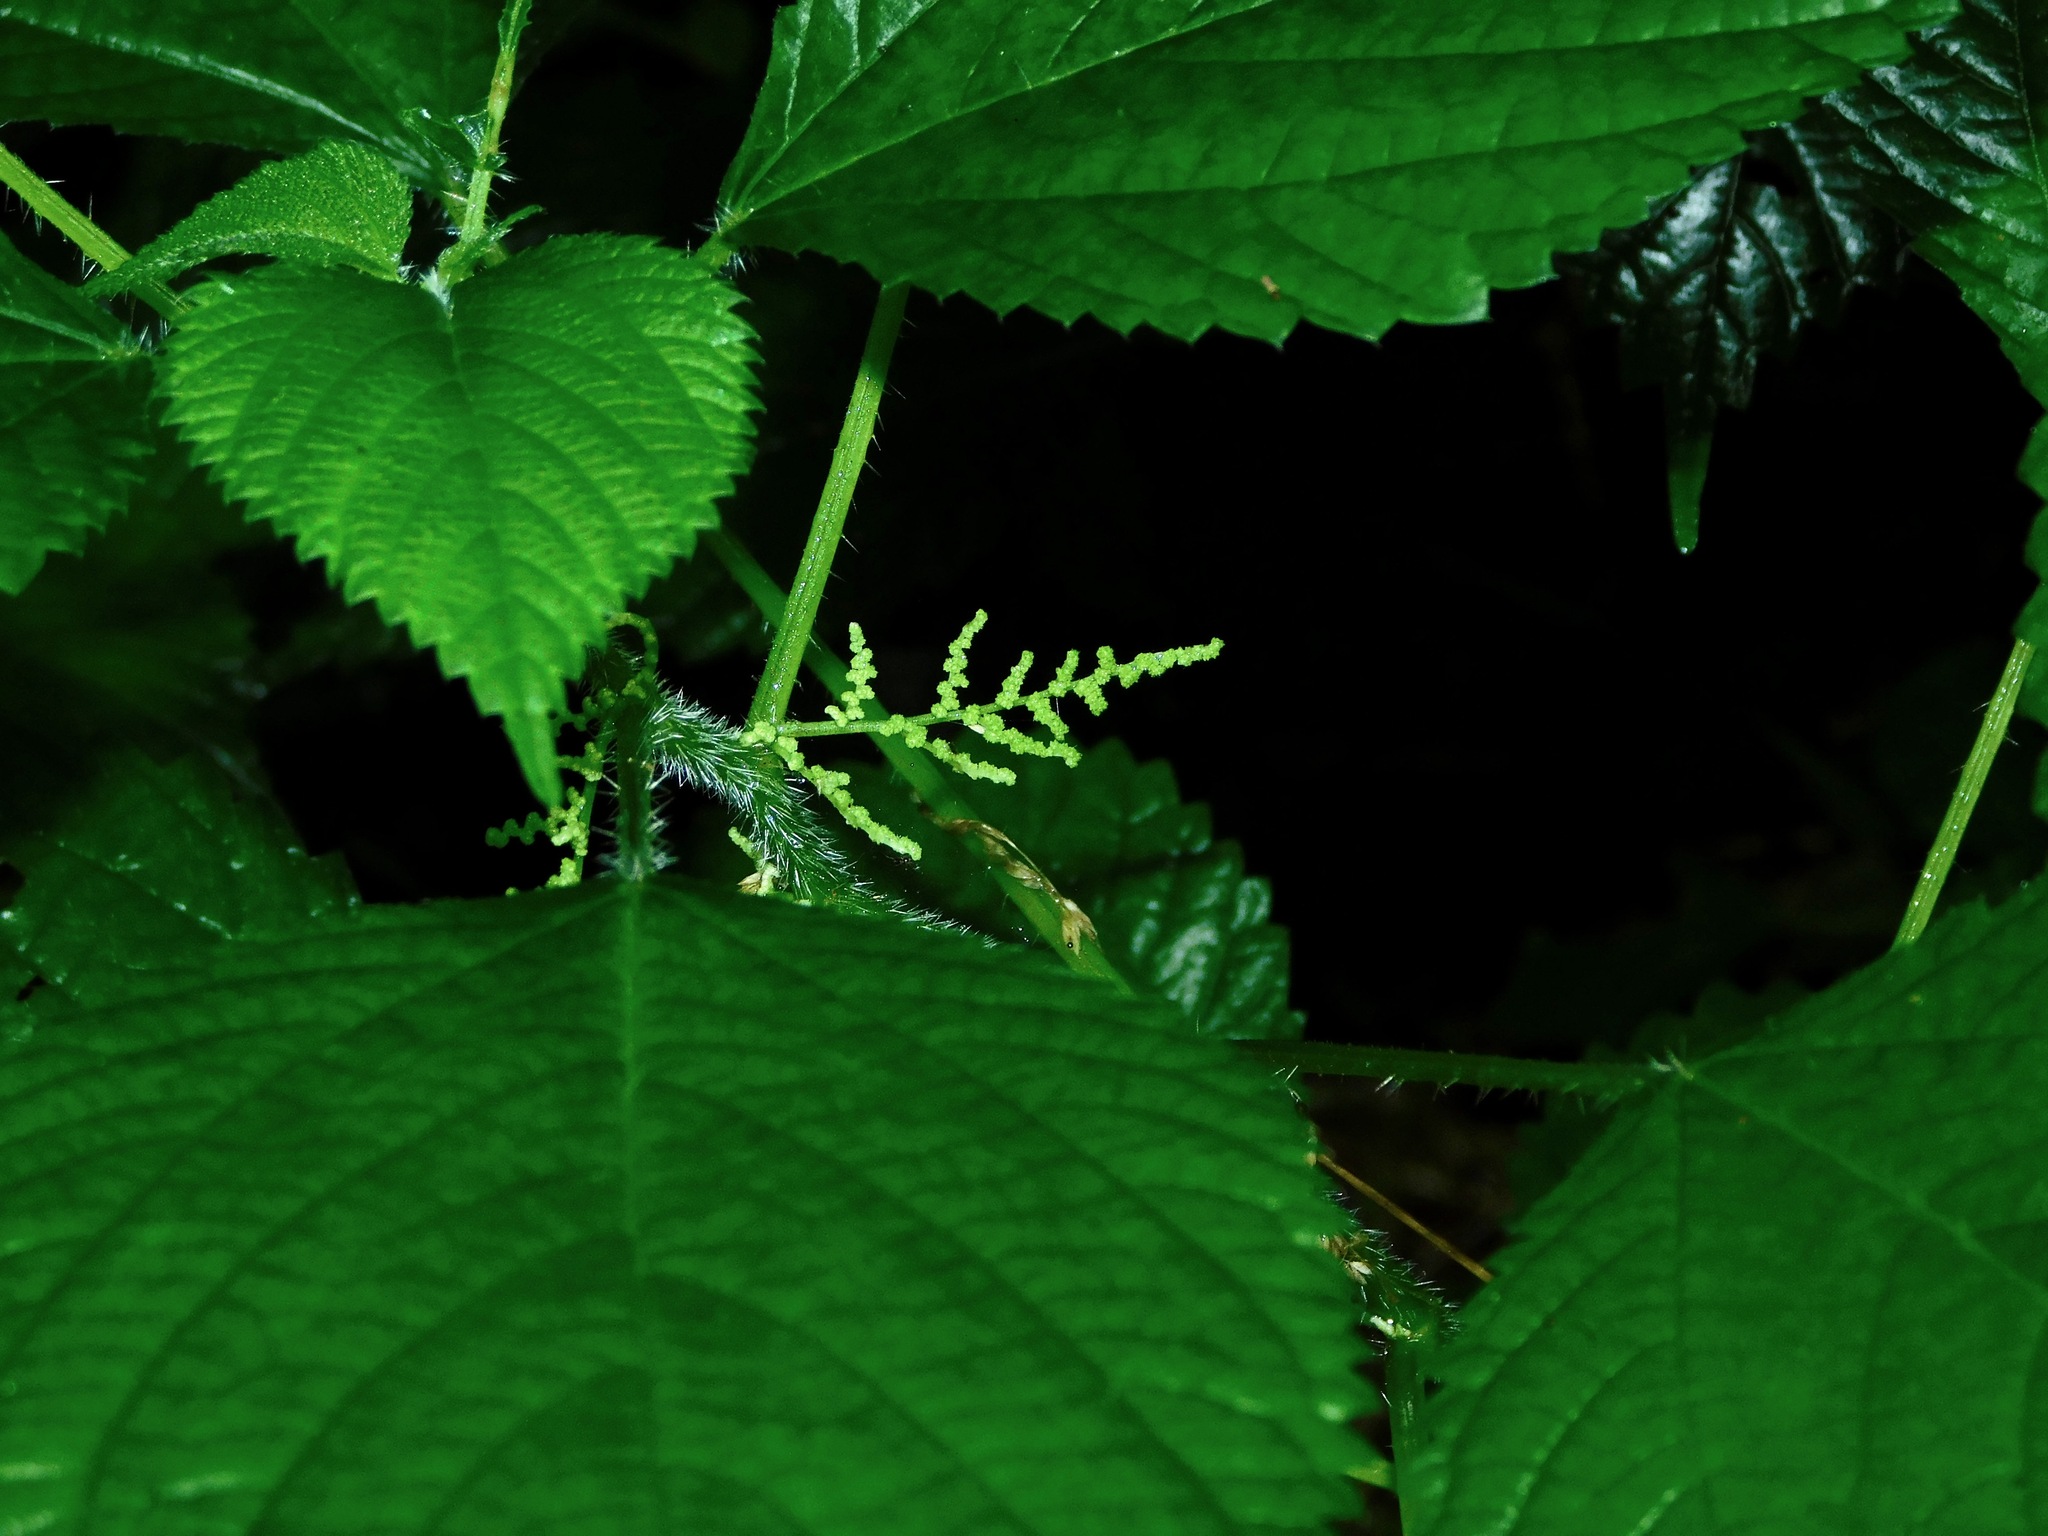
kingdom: Plantae
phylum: Tracheophyta
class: Magnoliopsida
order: Rosales
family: Urticaceae
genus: Laportea
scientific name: Laportea canadensis
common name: Canada nettle
